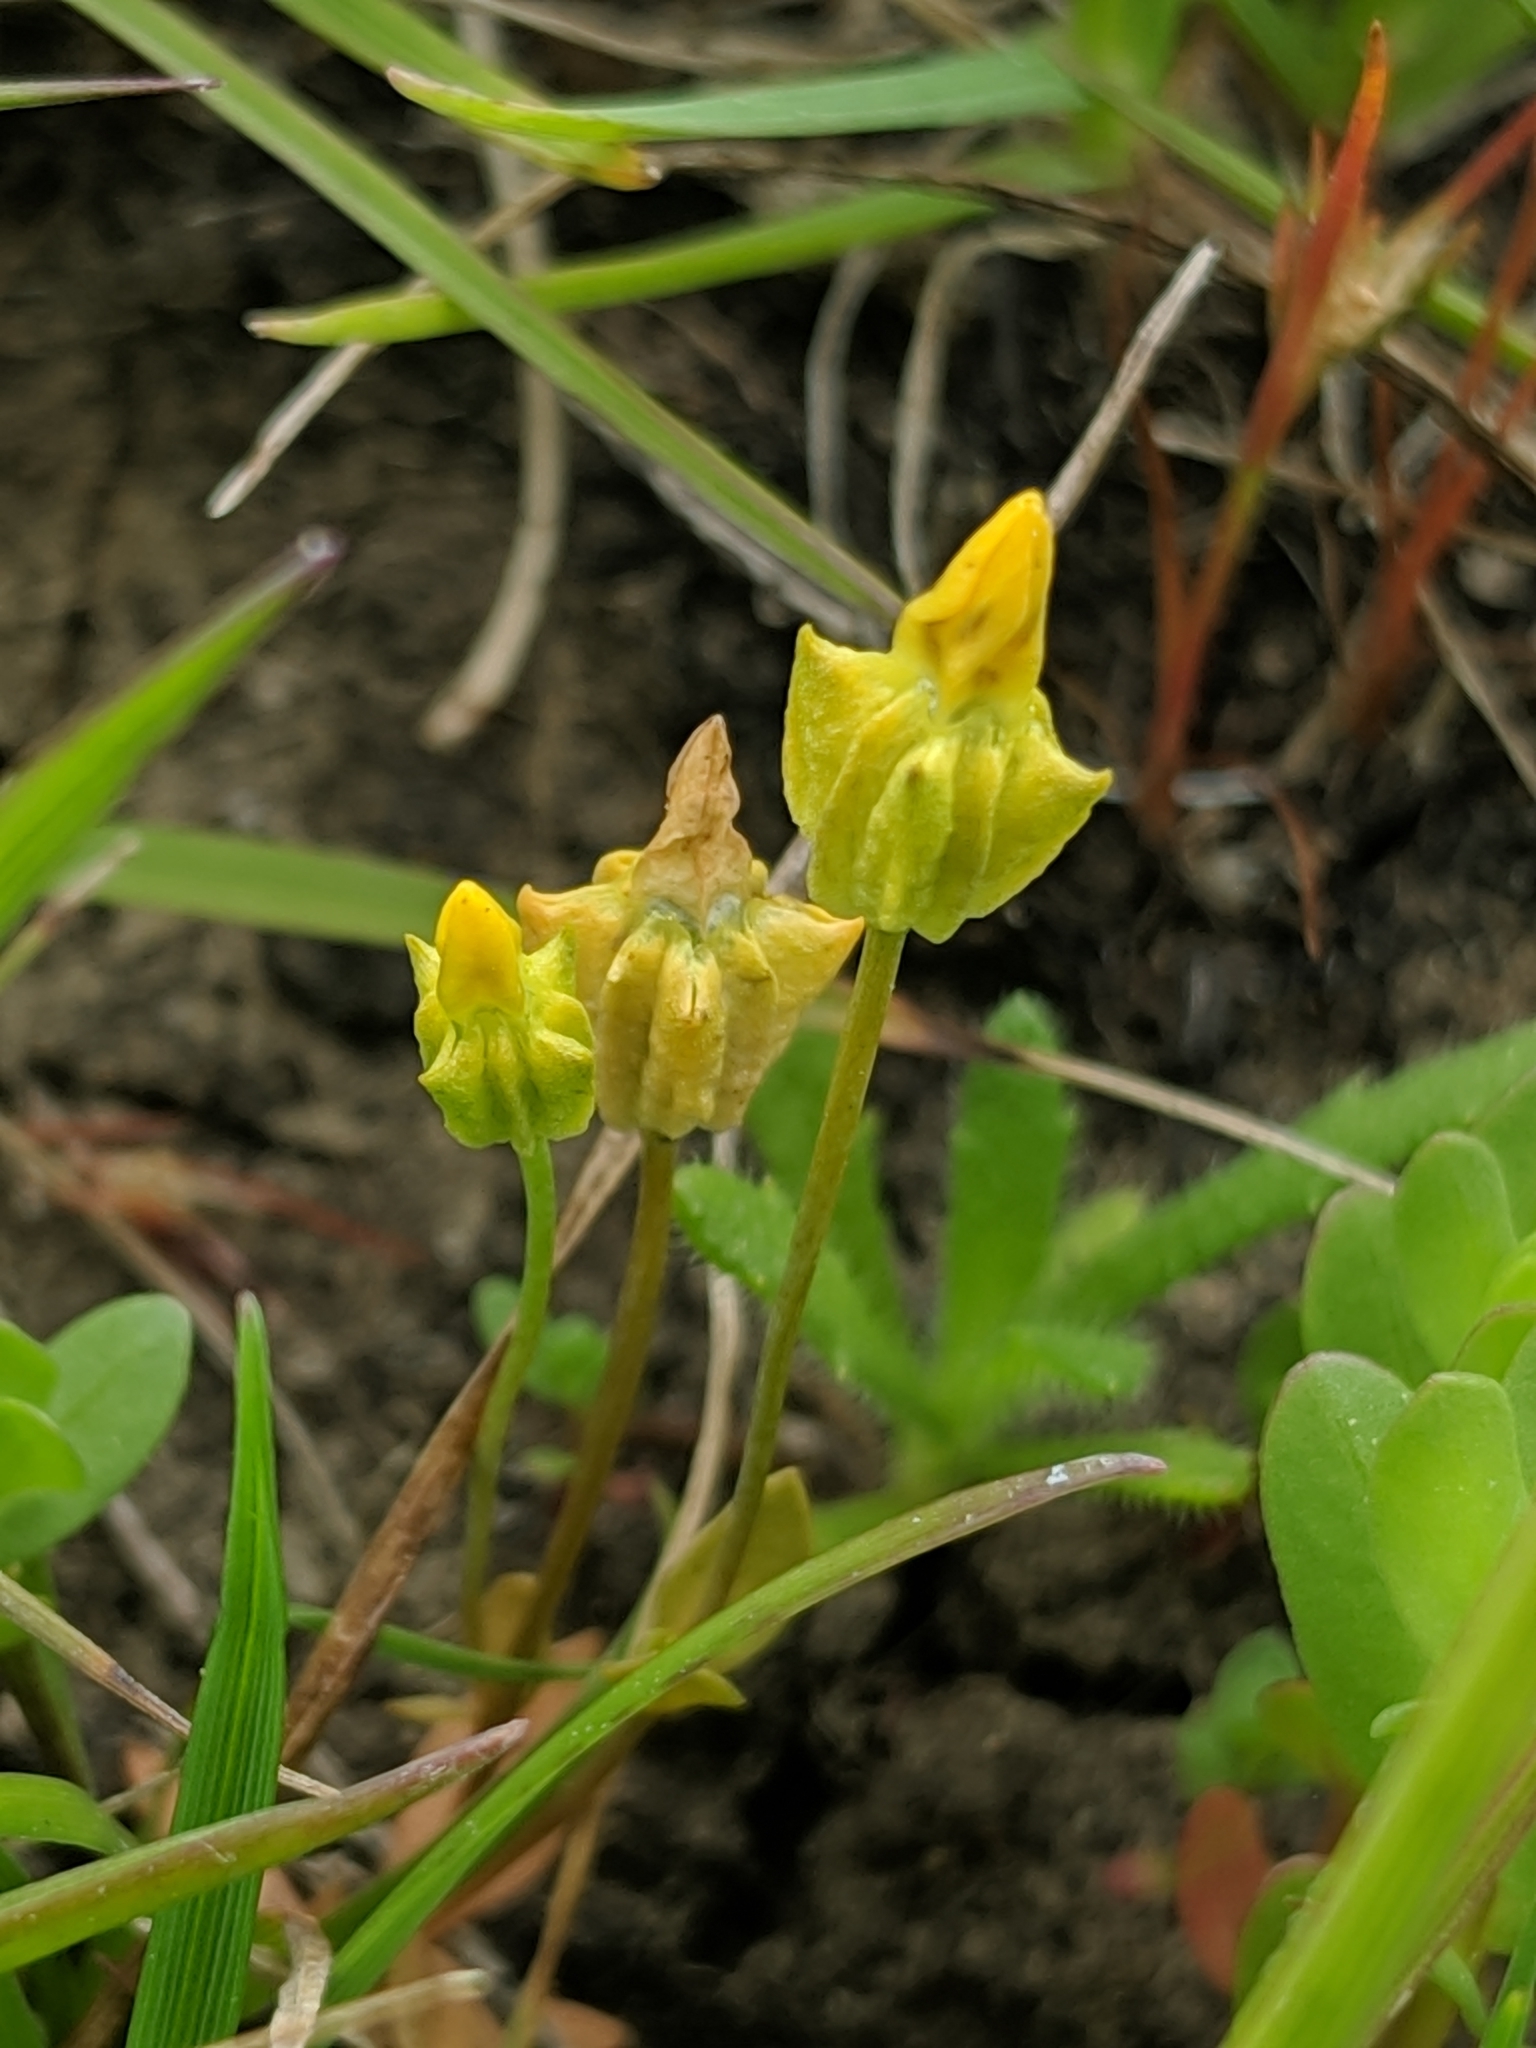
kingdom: Plantae
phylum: Tracheophyta
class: Magnoliopsida
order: Gentianales
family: Gentianaceae
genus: Microcala
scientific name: Microcala quadrangularis
